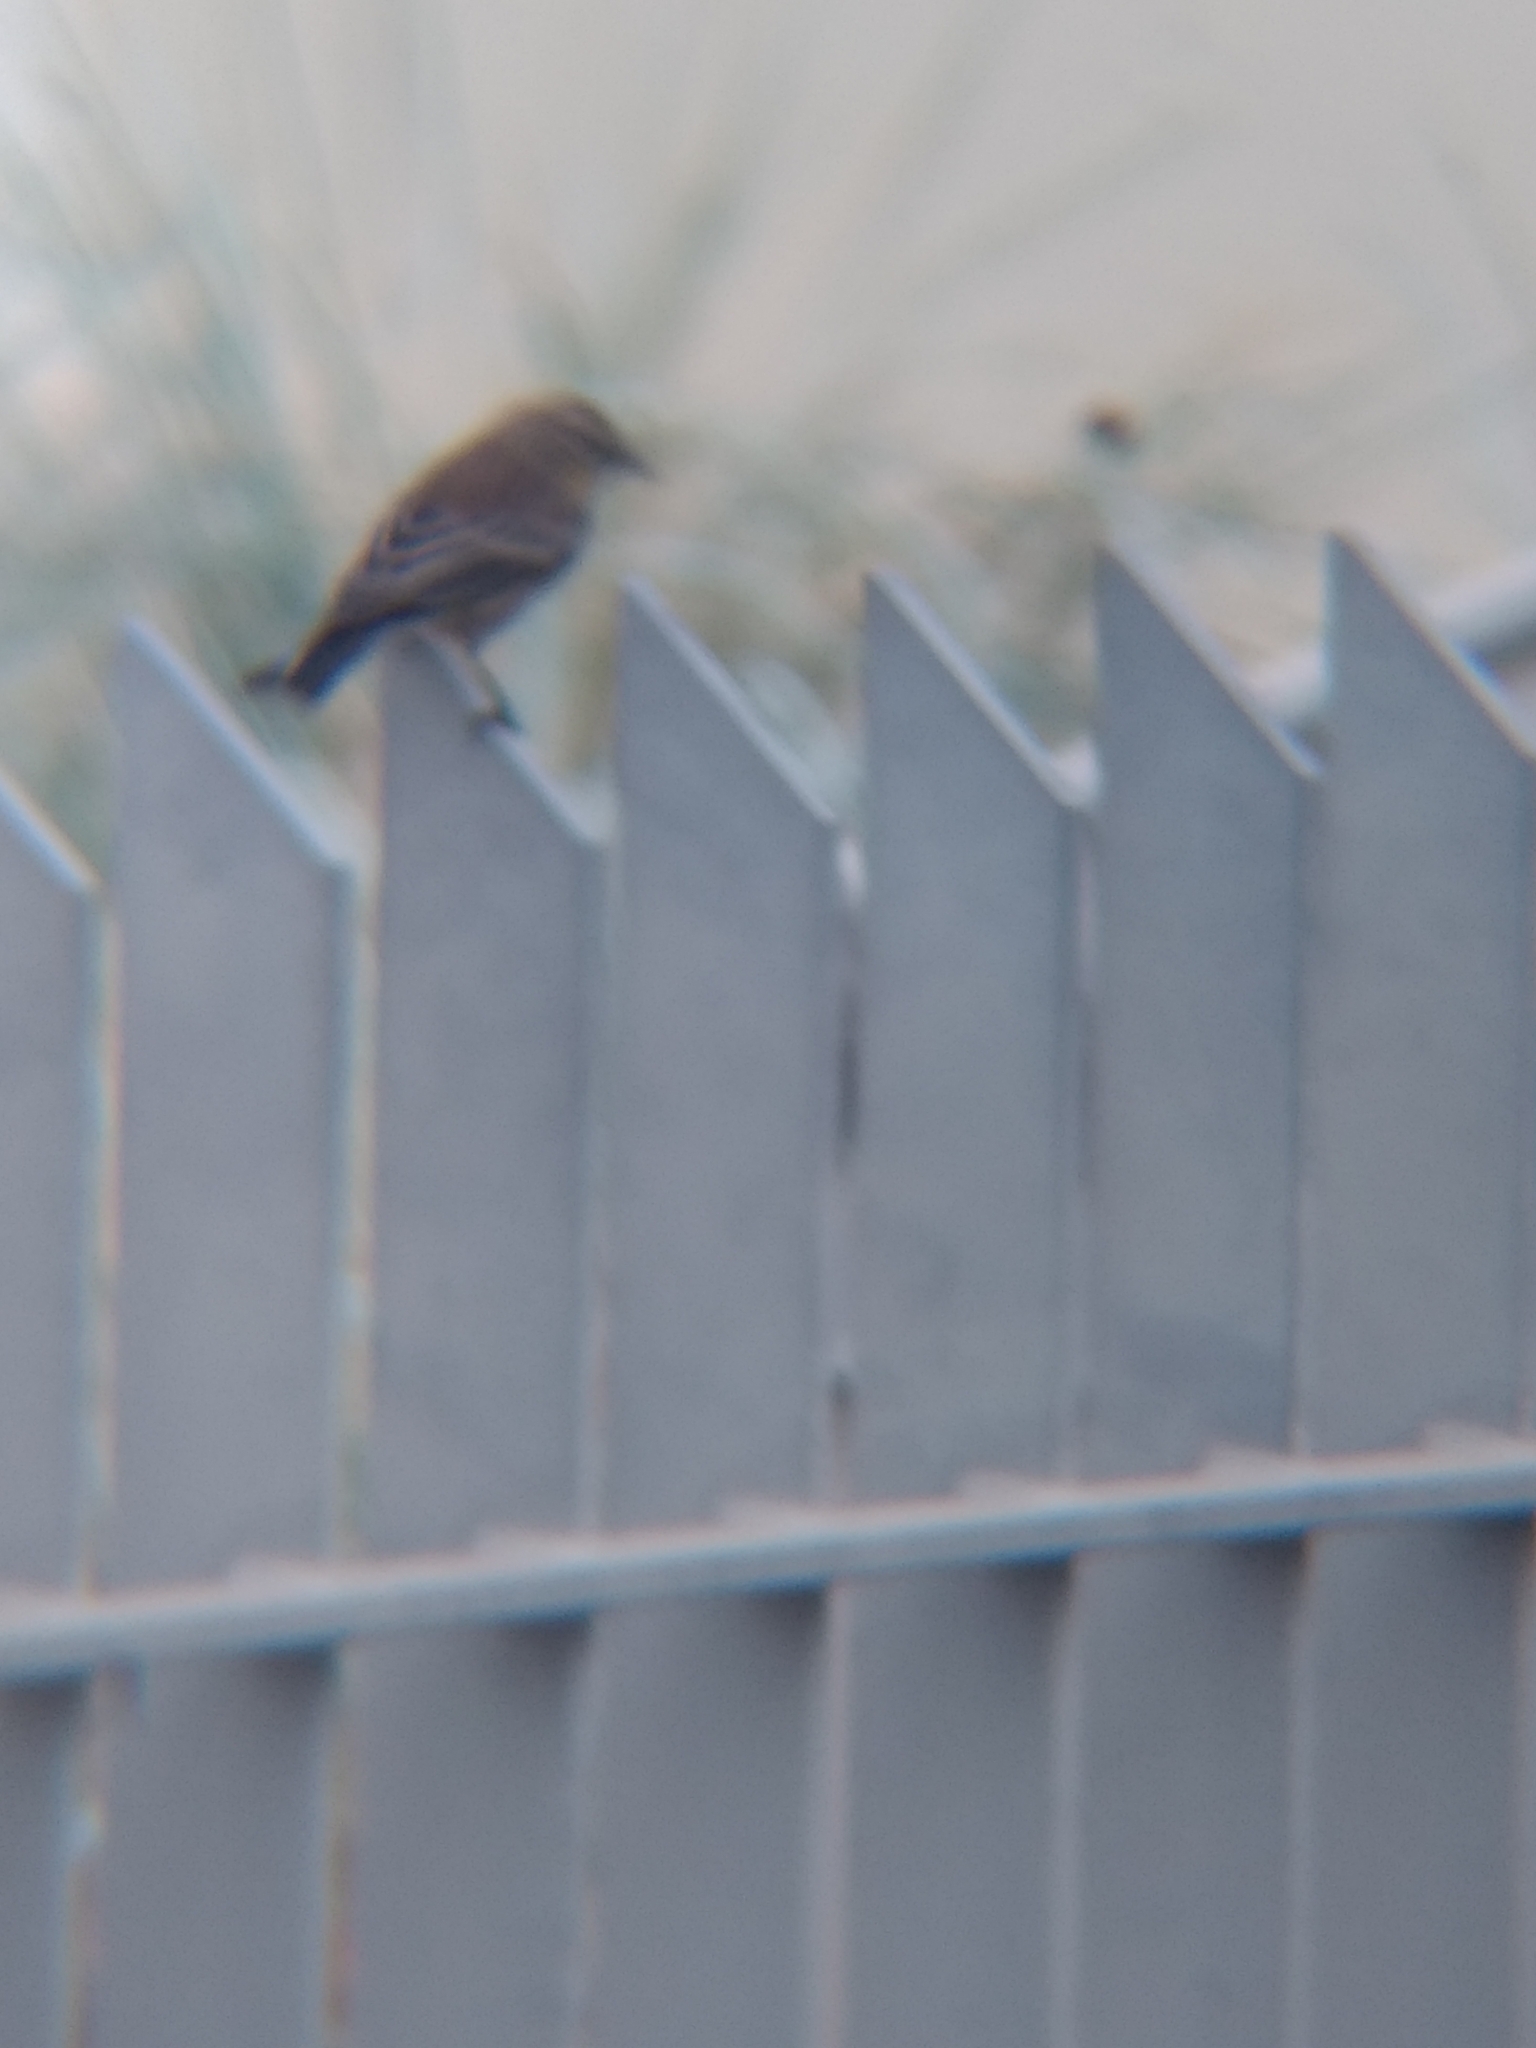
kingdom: Animalia
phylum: Chordata
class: Aves
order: Passeriformes
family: Parulidae
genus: Setophaga
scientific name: Setophaga coronata
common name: Myrtle warbler
